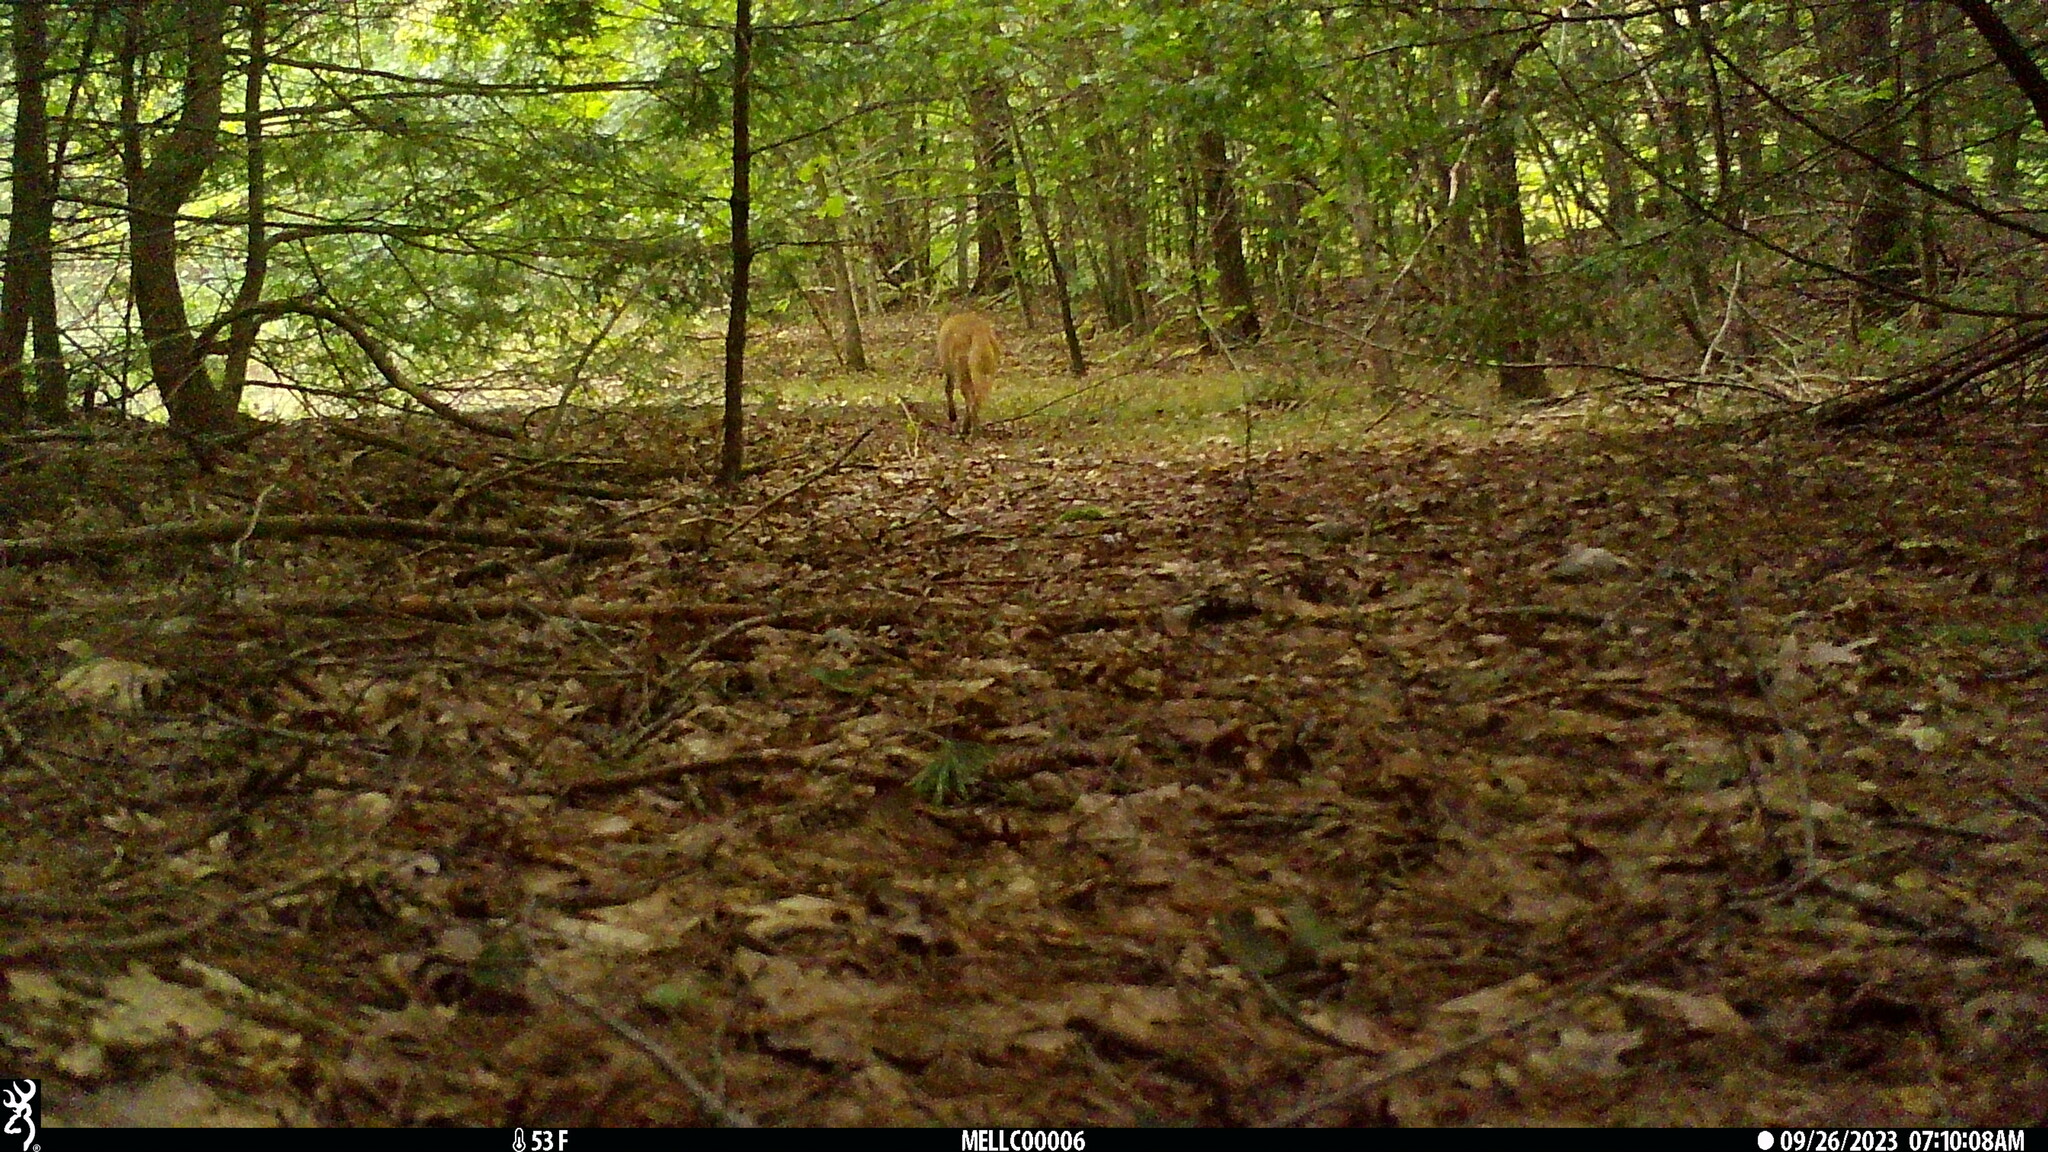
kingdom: Animalia
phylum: Chordata
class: Mammalia
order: Carnivora
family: Canidae
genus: Canis
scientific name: Canis latrans
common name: Coyote
